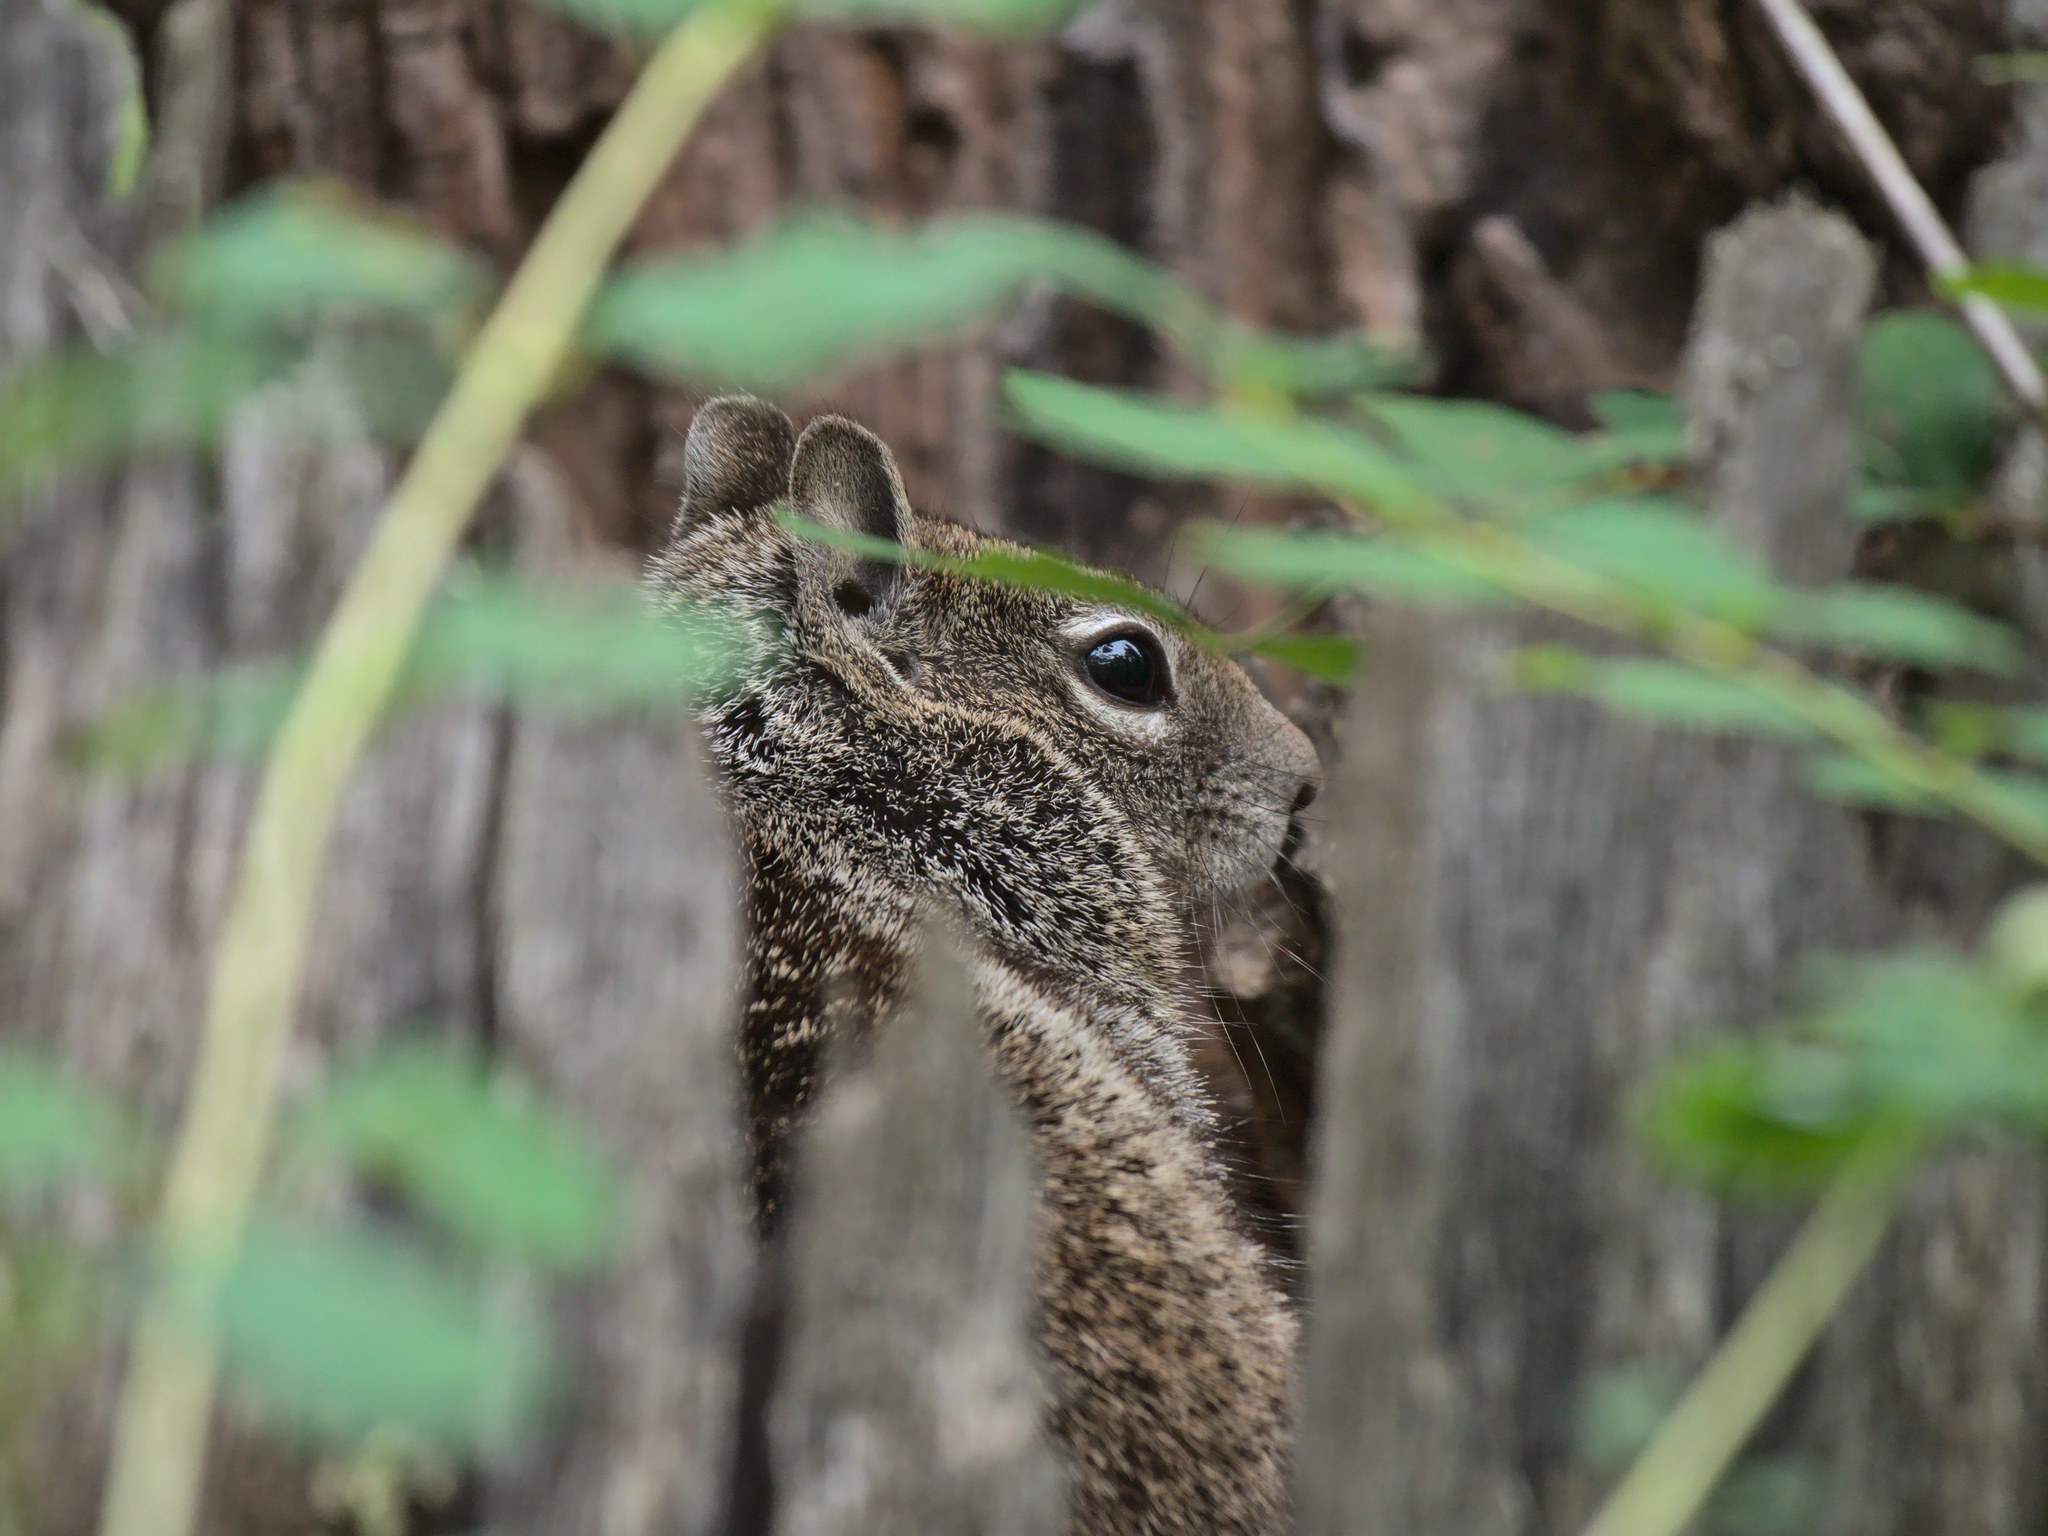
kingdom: Animalia
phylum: Chordata
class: Mammalia
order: Rodentia
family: Sciuridae
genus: Otospermophilus
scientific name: Otospermophilus beecheyi
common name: California ground squirrel
